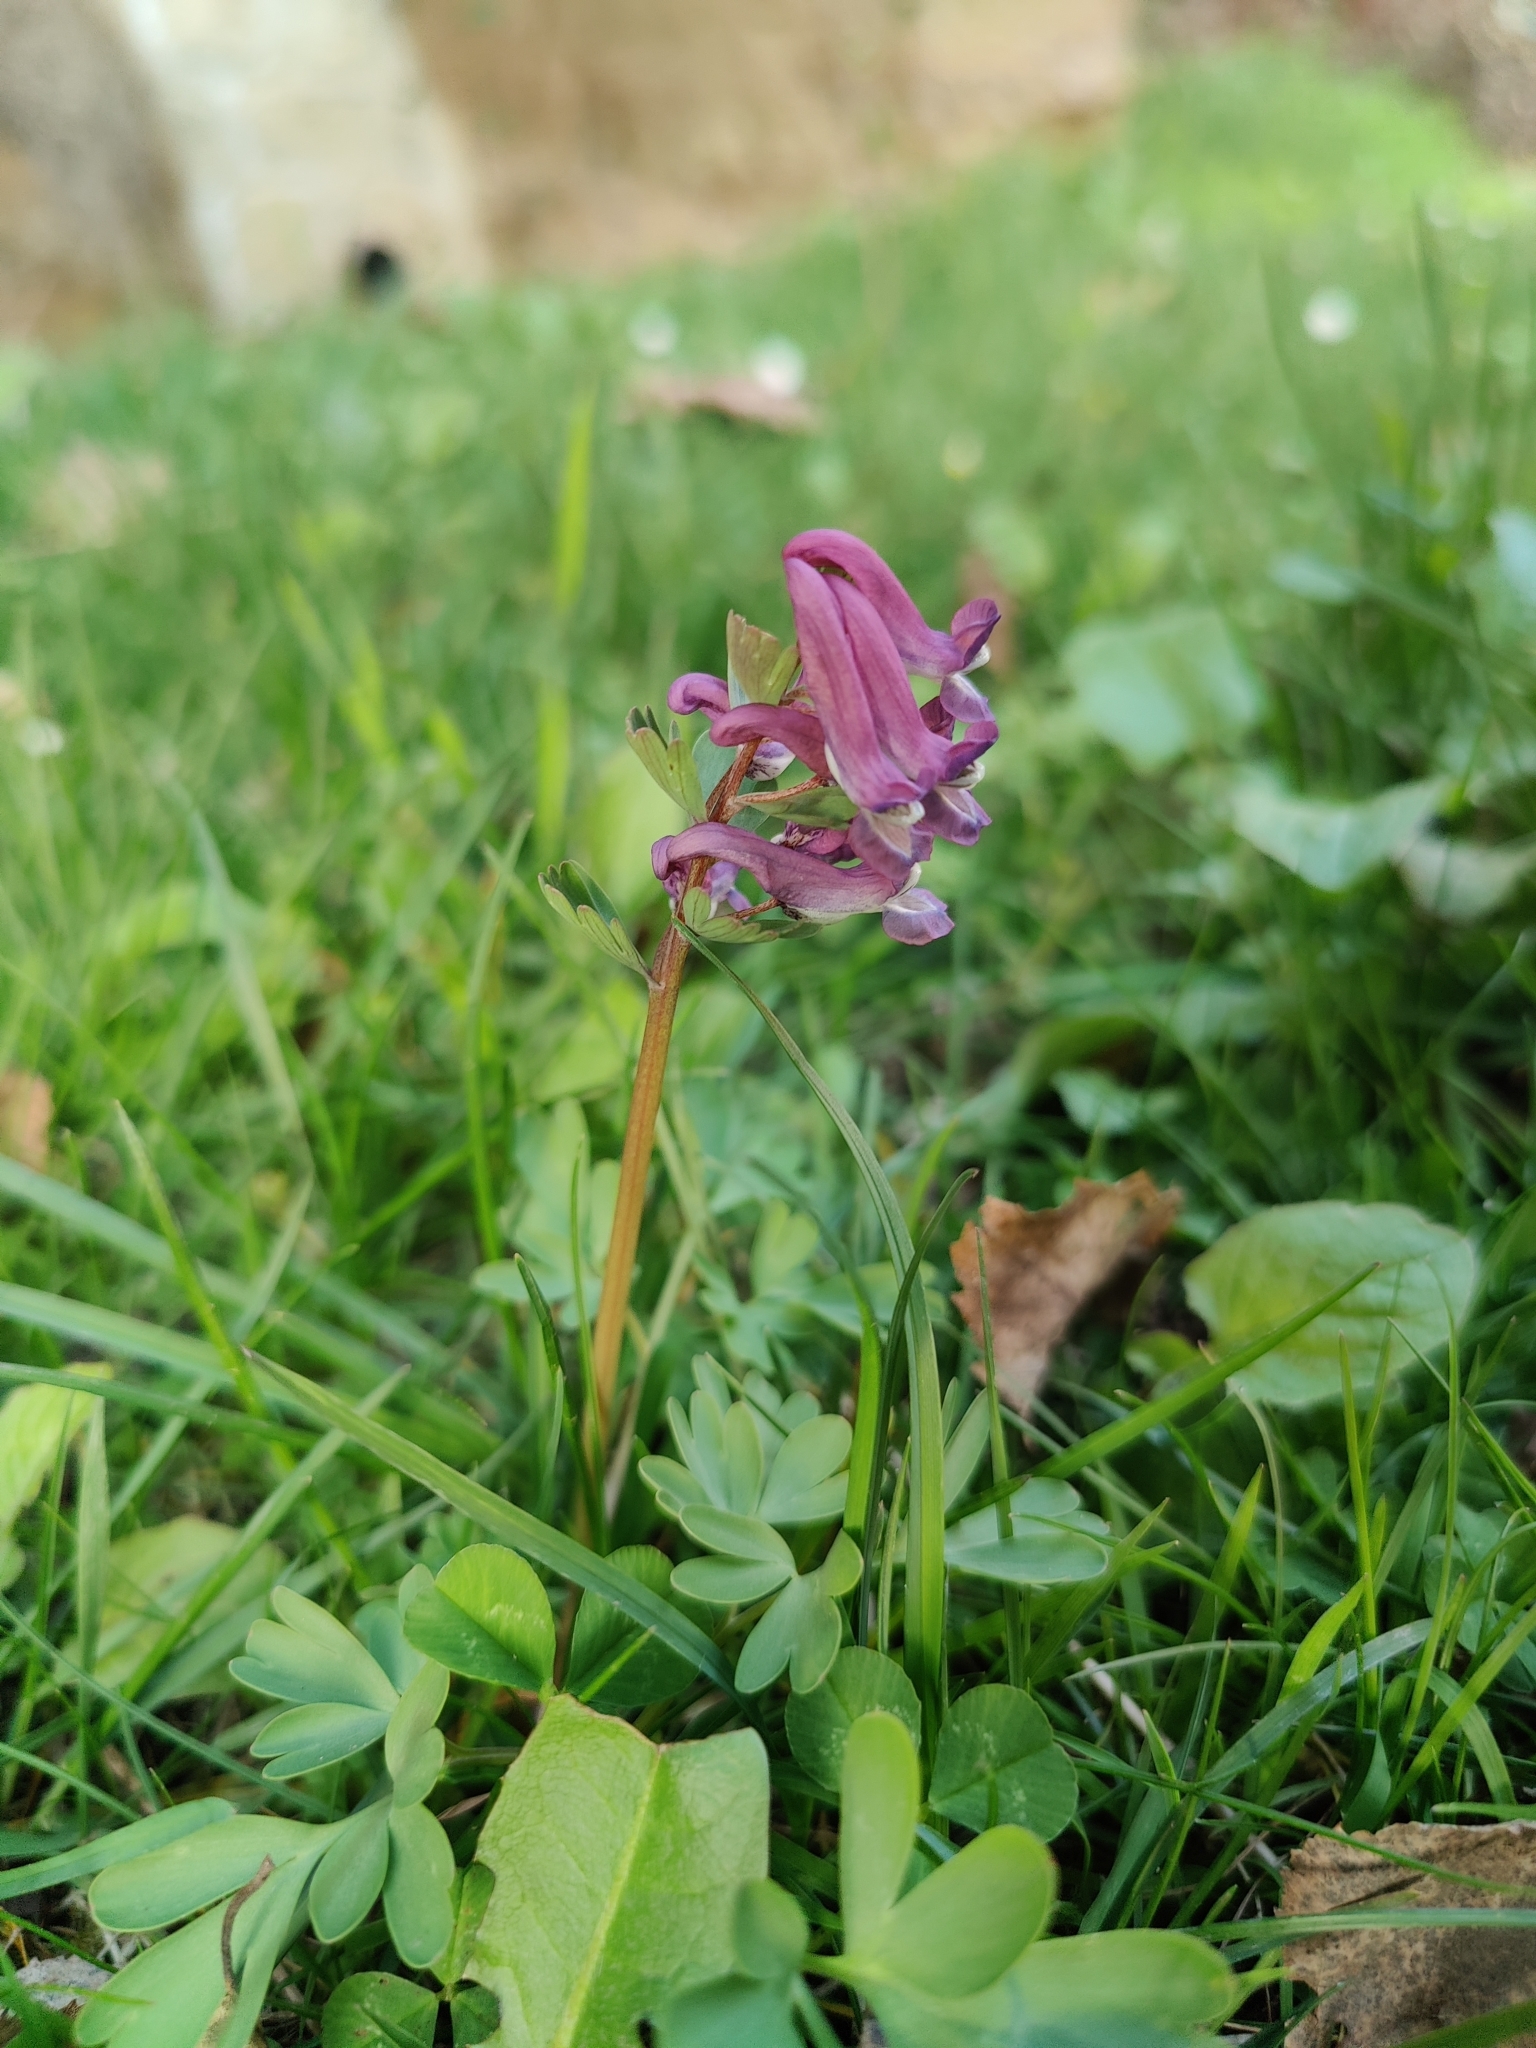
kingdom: Plantae
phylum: Tracheophyta
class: Magnoliopsida
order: Ranunculales
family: Papaveraceae
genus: Corydalis
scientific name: Corydalis solida
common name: Bird-in-a-bush
